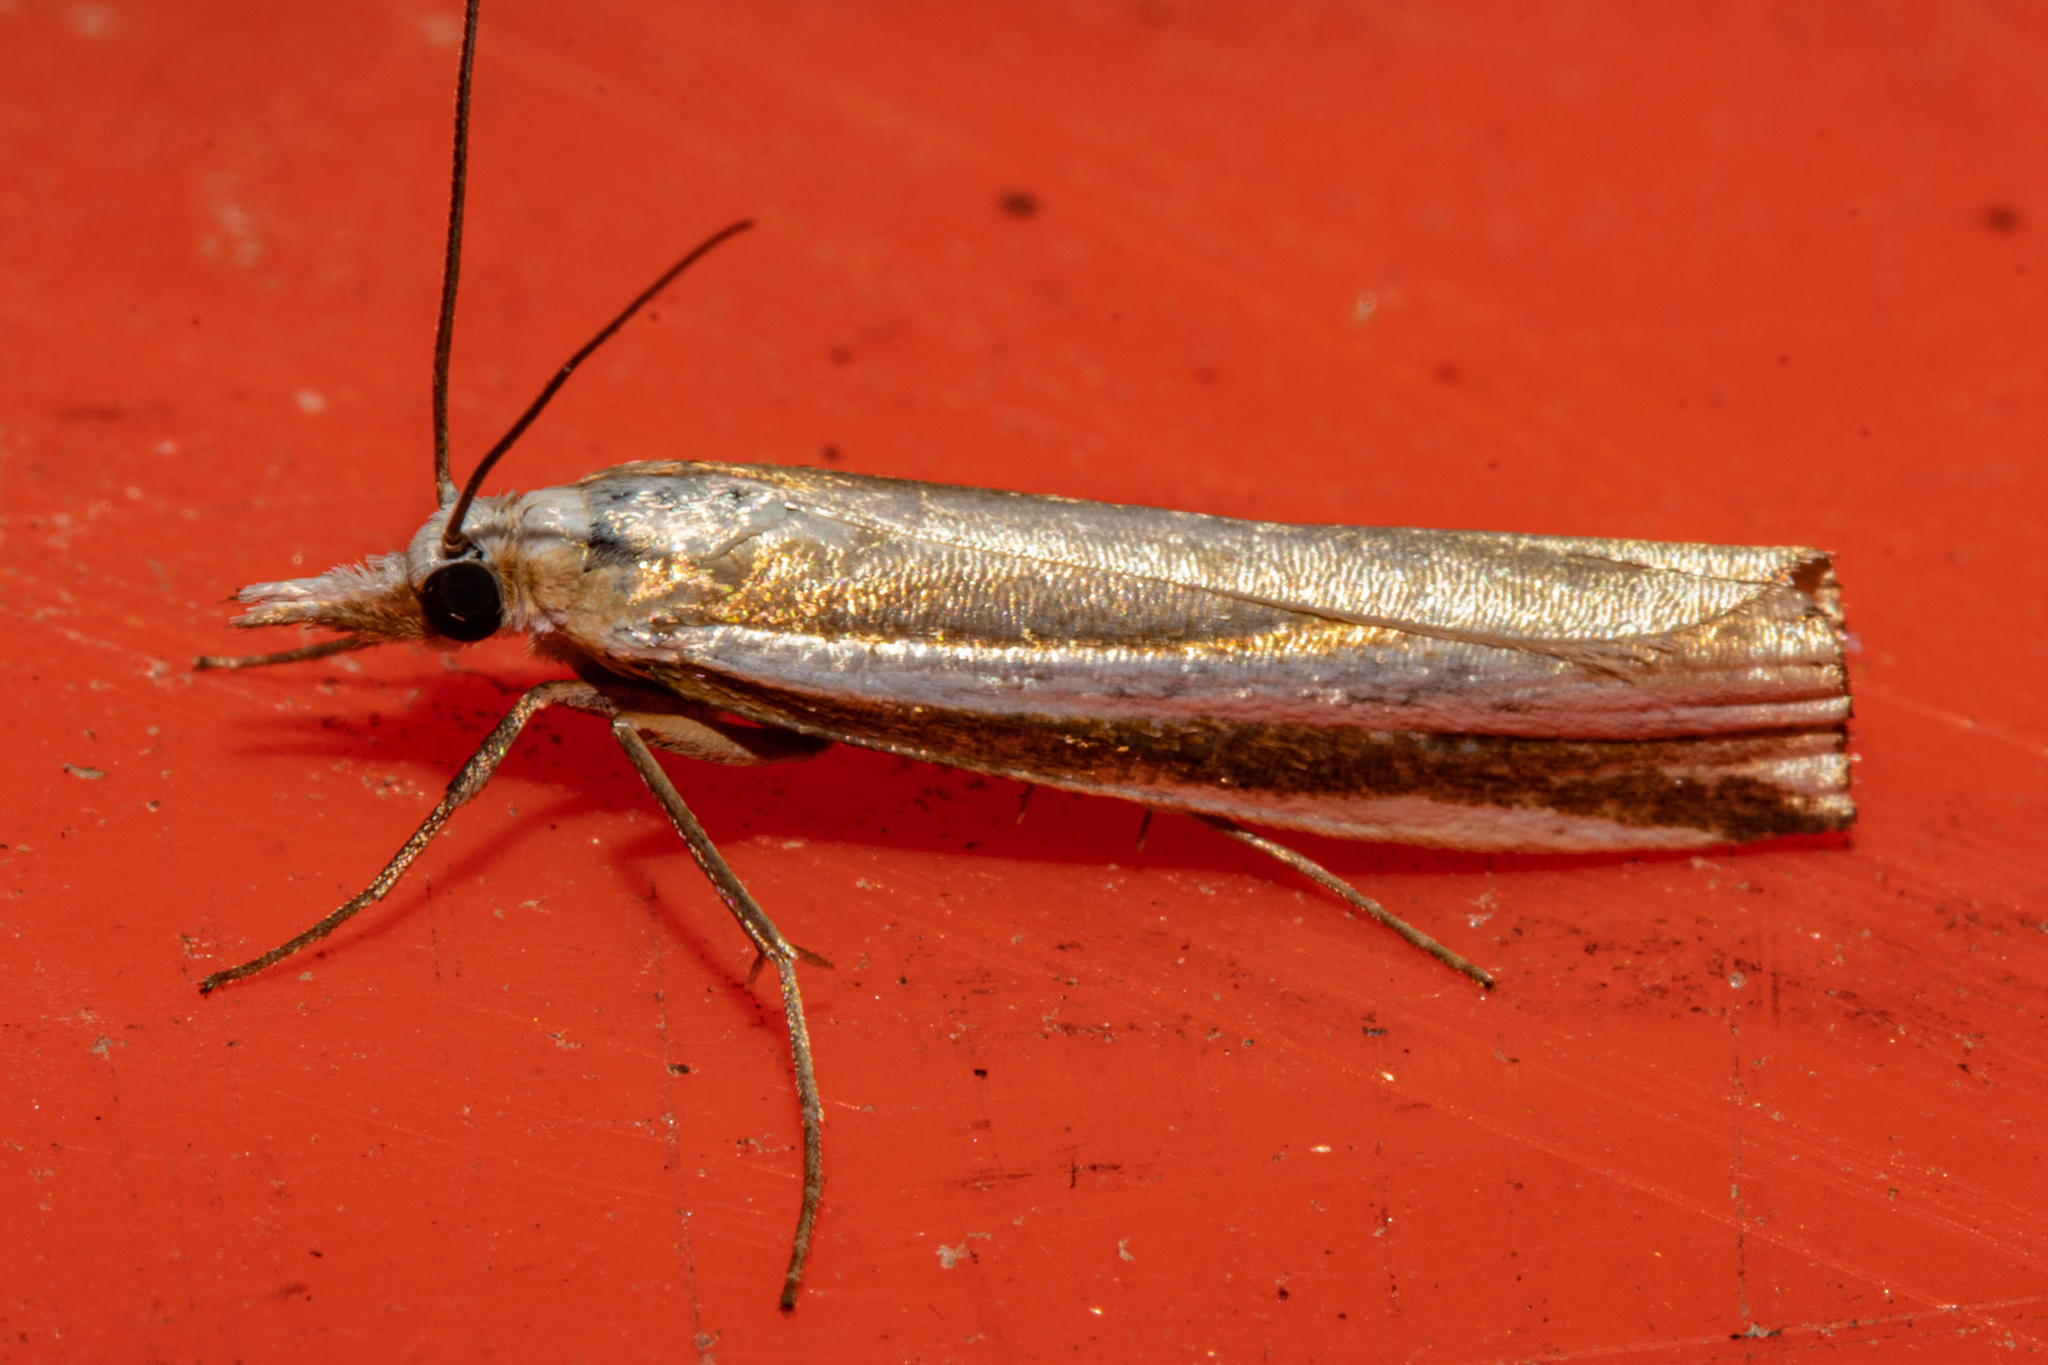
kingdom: Animalia
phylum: Arthropoda
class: Insecta
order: Lepidoptera
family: Crambidae
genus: Orocrambus
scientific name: Orocrambus apicellus
